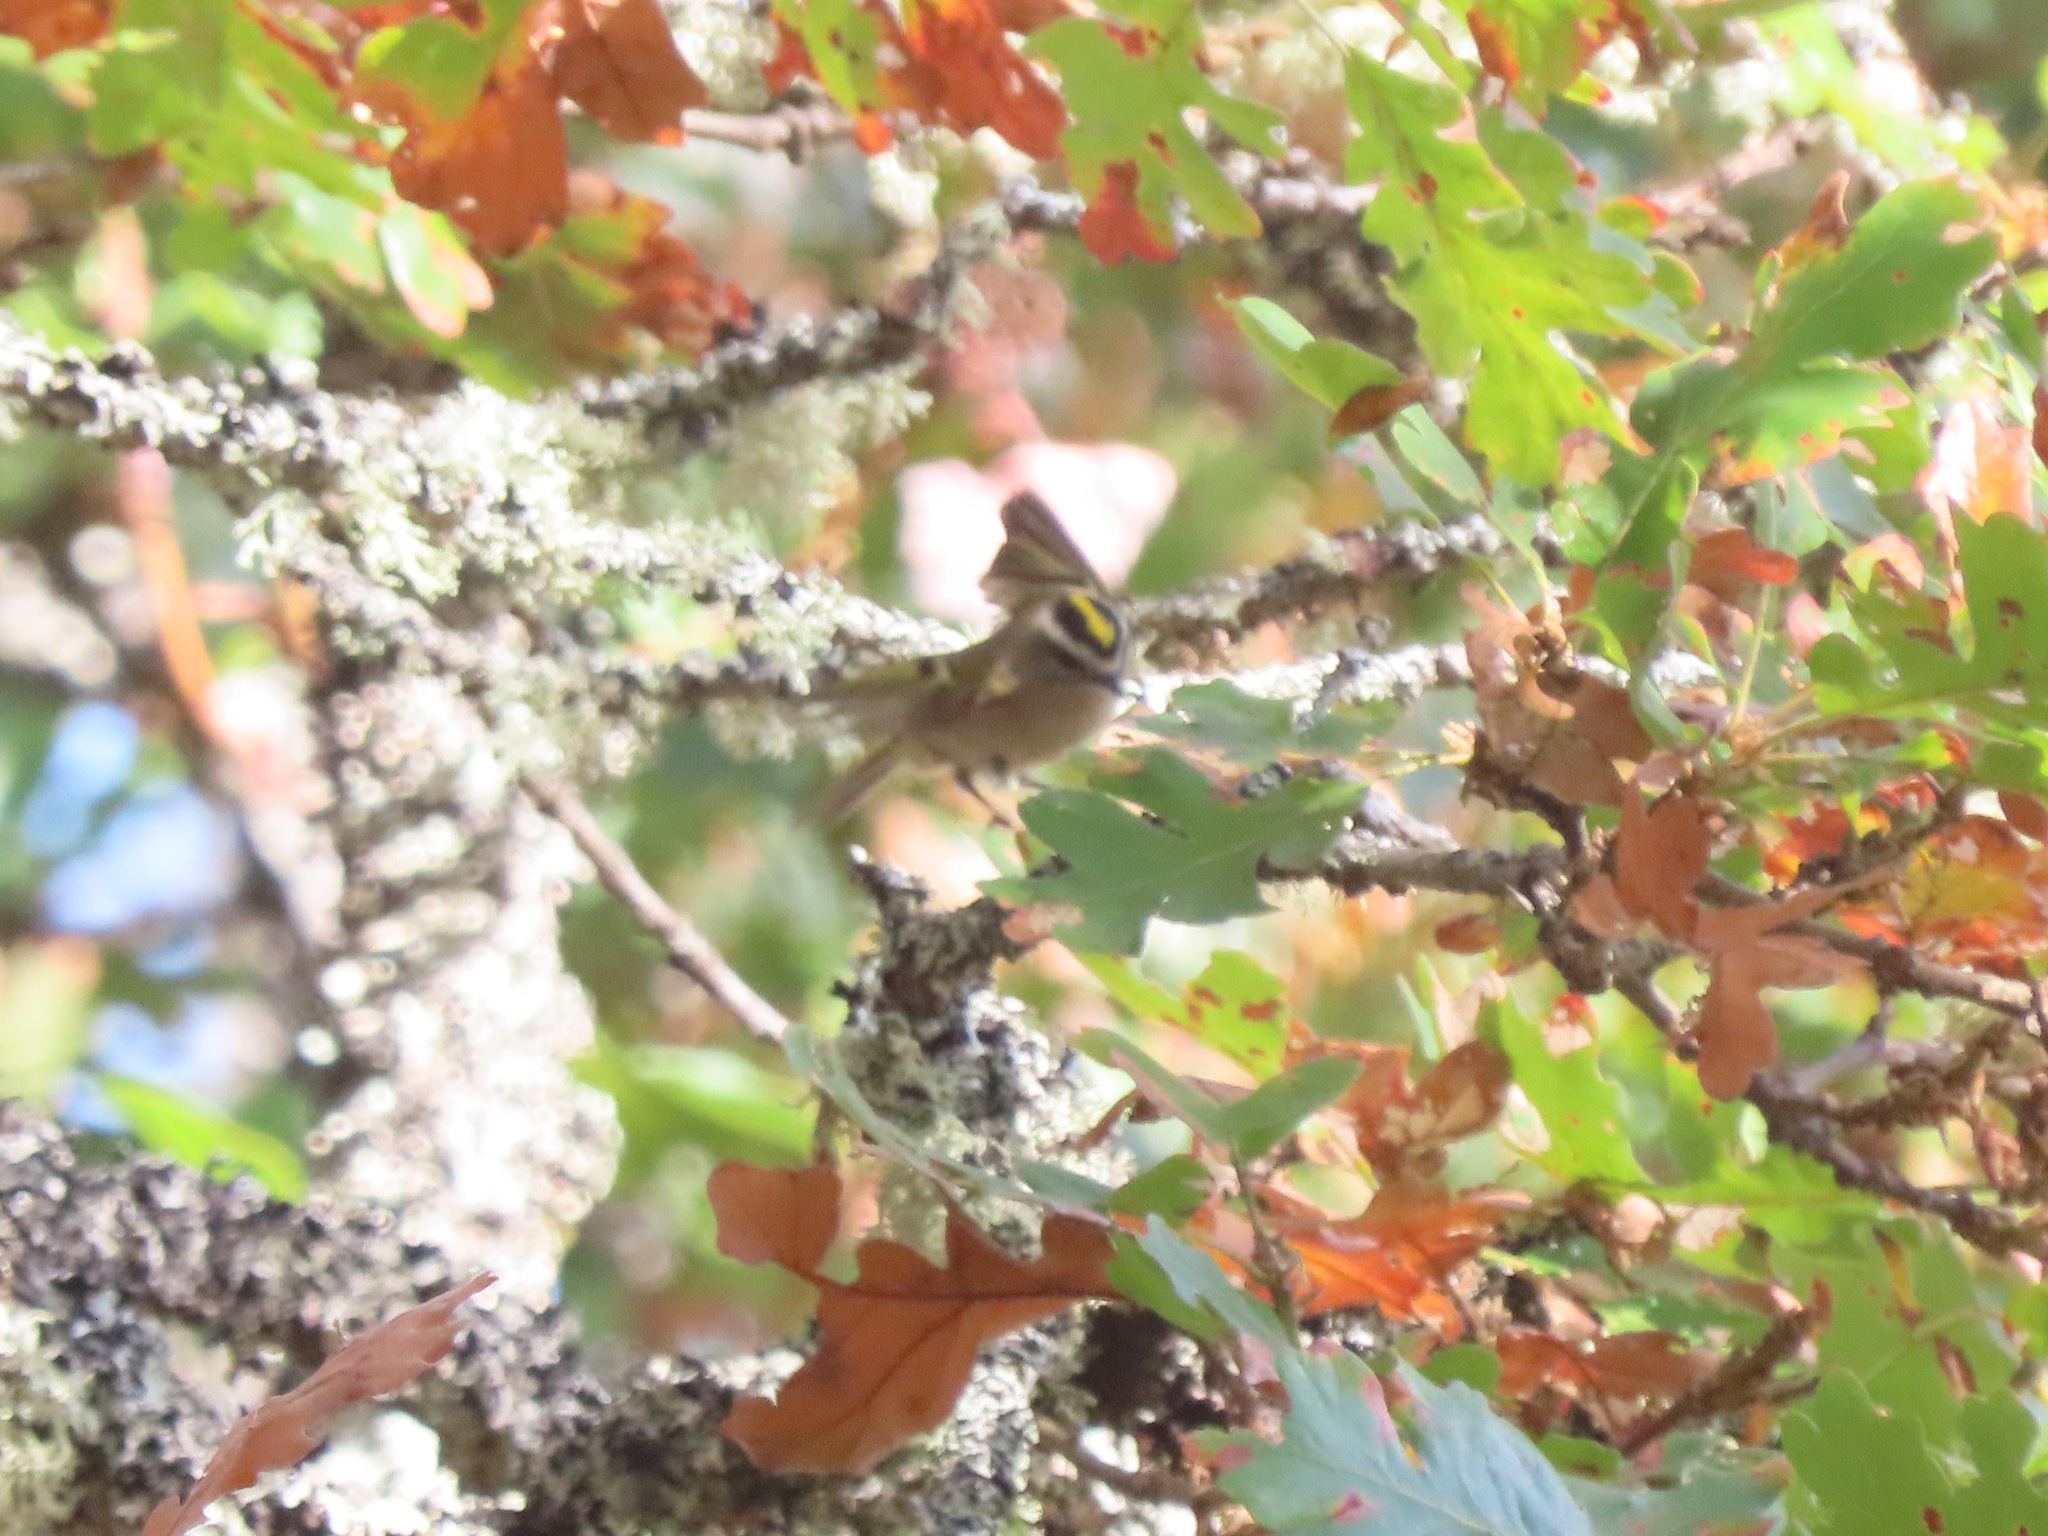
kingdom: Animalia
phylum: Chordata
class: Aves
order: Passeriformes
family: Regulidae
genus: Regulus
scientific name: Regulus satrapa
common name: Golden-crowned kinglet
